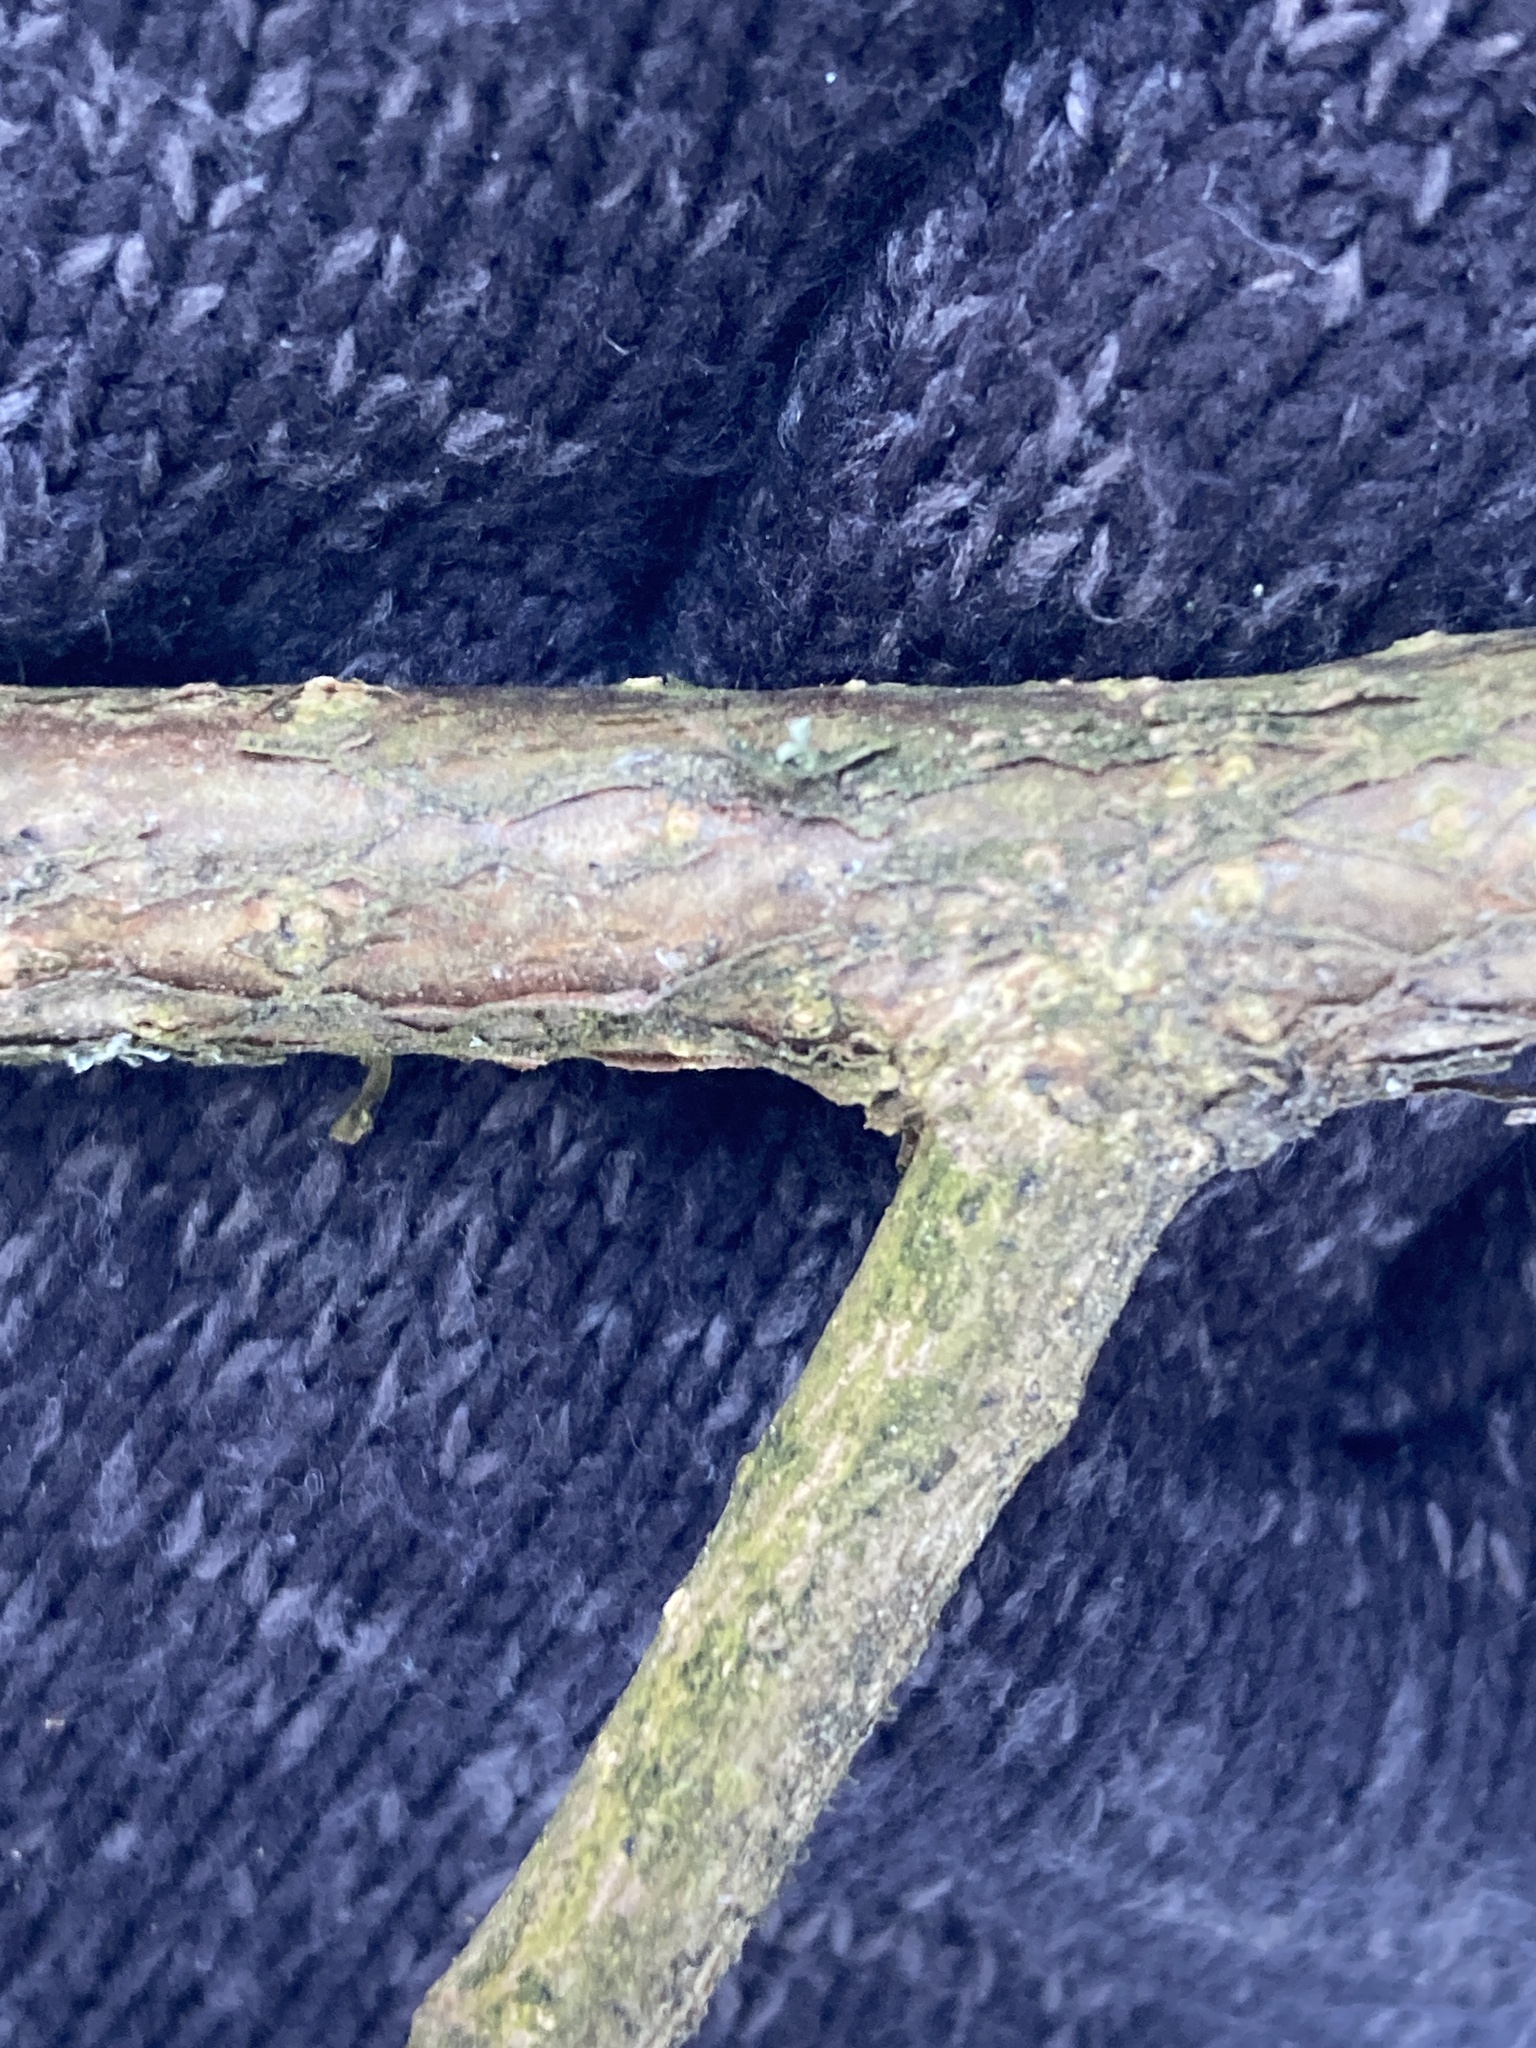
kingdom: Plantae
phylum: Tracheophyta
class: Magnoliopsida
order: Fagales
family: Betulaceae
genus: Corylus
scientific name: Corylus avellana
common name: European hazel
